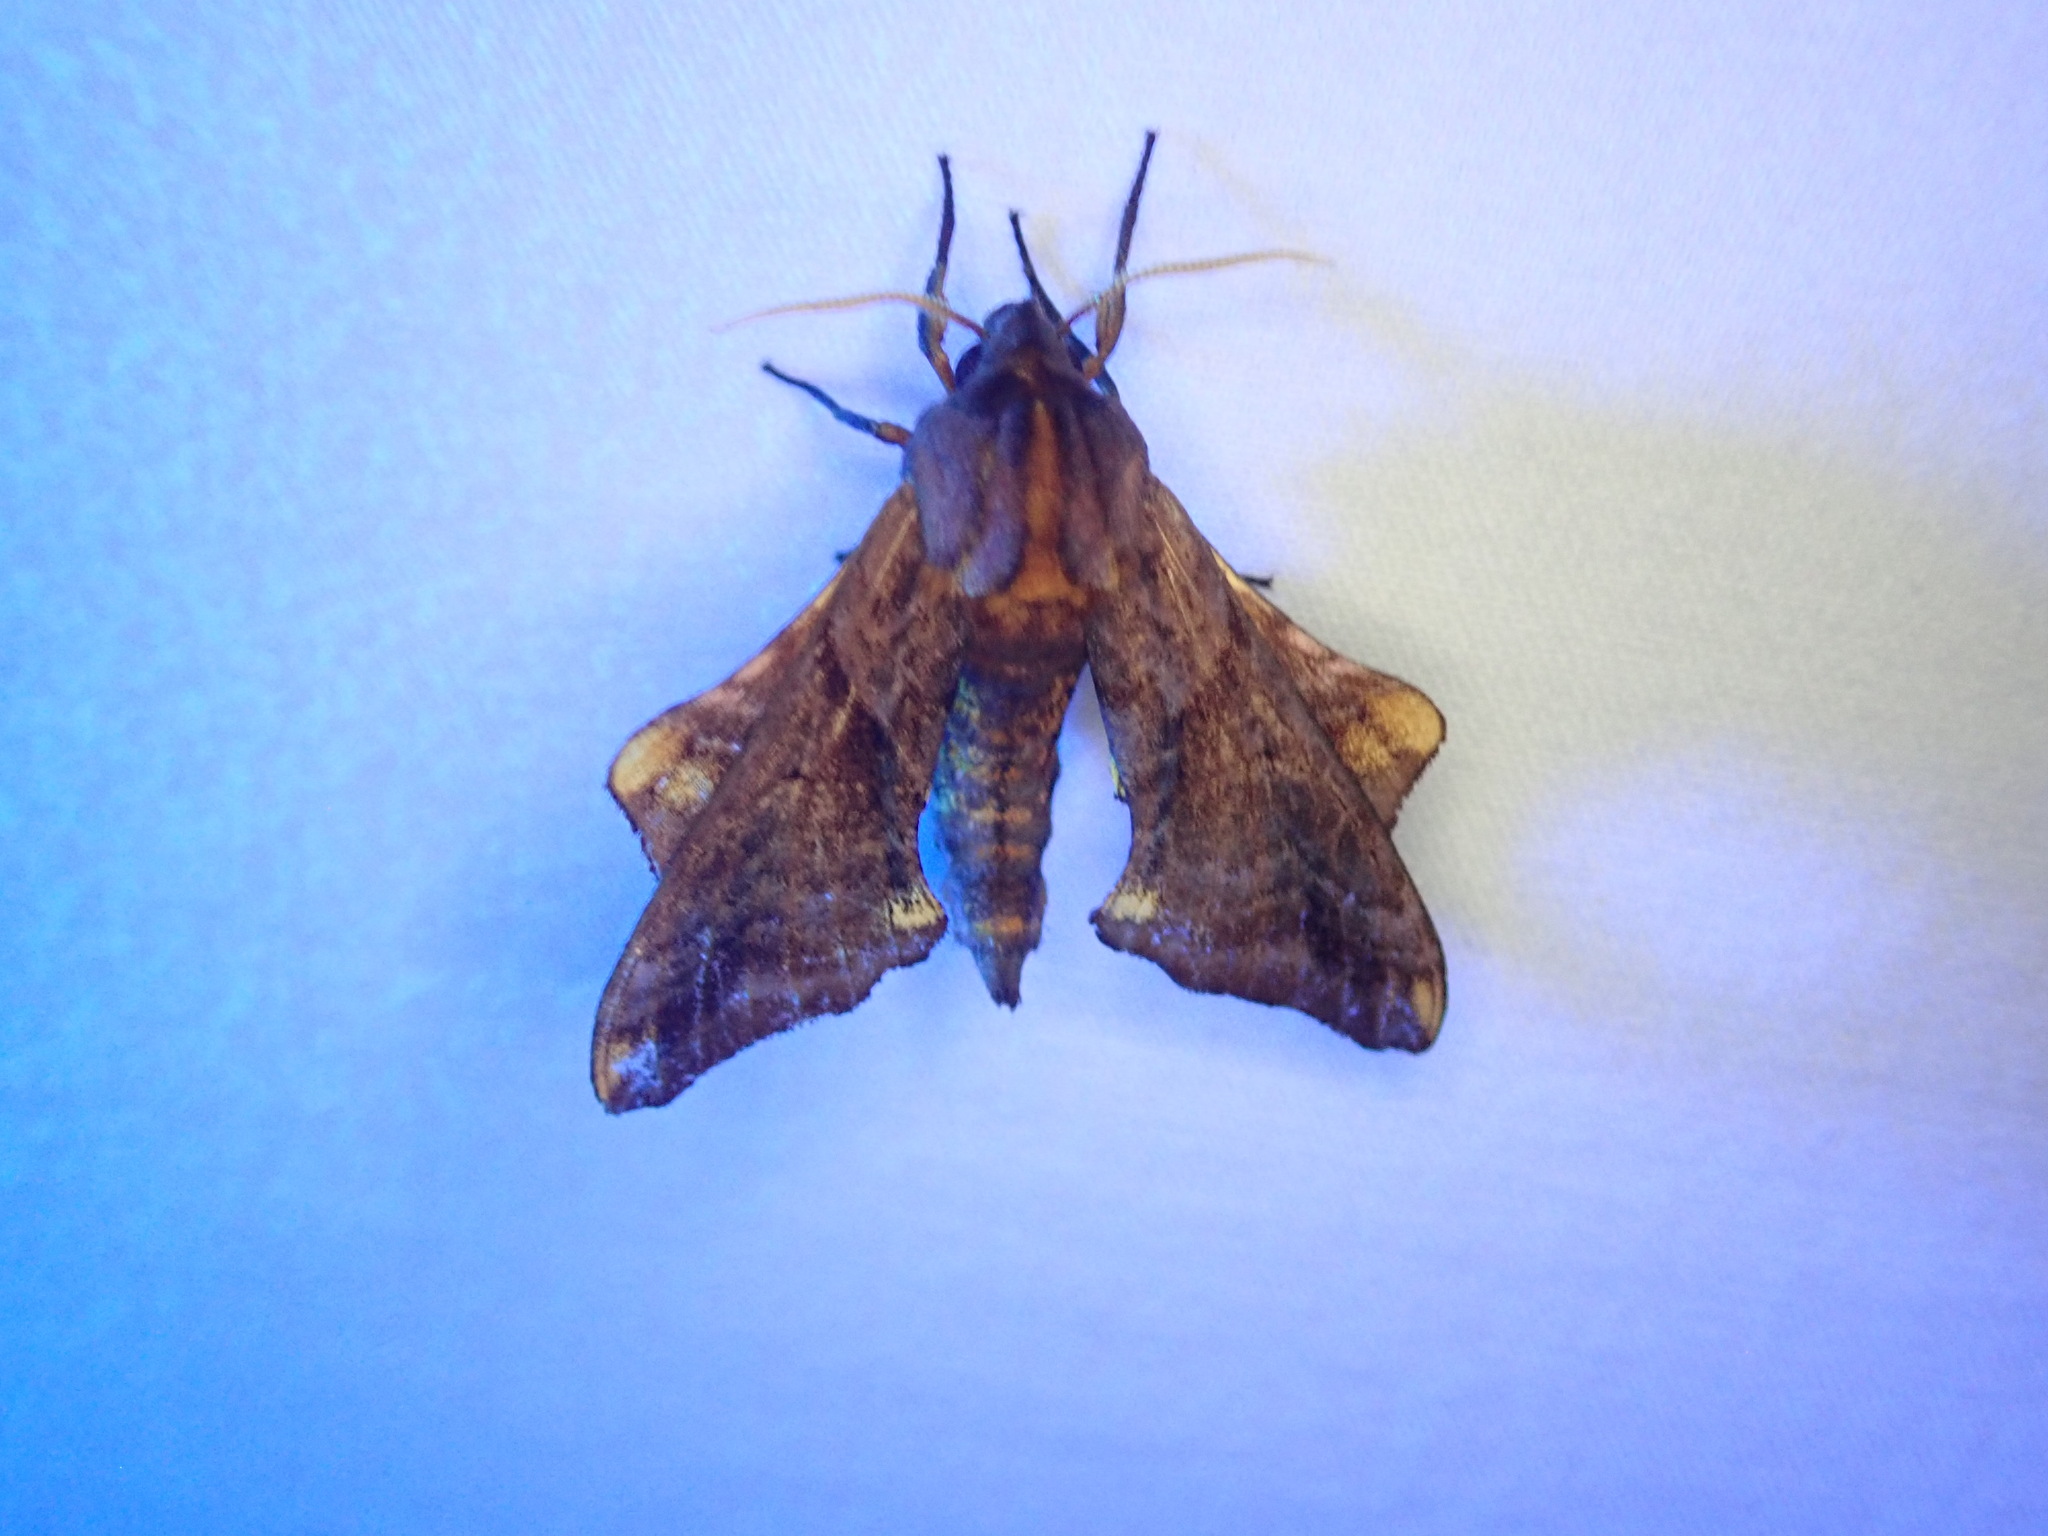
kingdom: Animalia
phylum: Arthropoda
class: Insecta
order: Lepidoptera
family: Sphingidae
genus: Paonias
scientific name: Paonias myops
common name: Small-eyed sphinx
